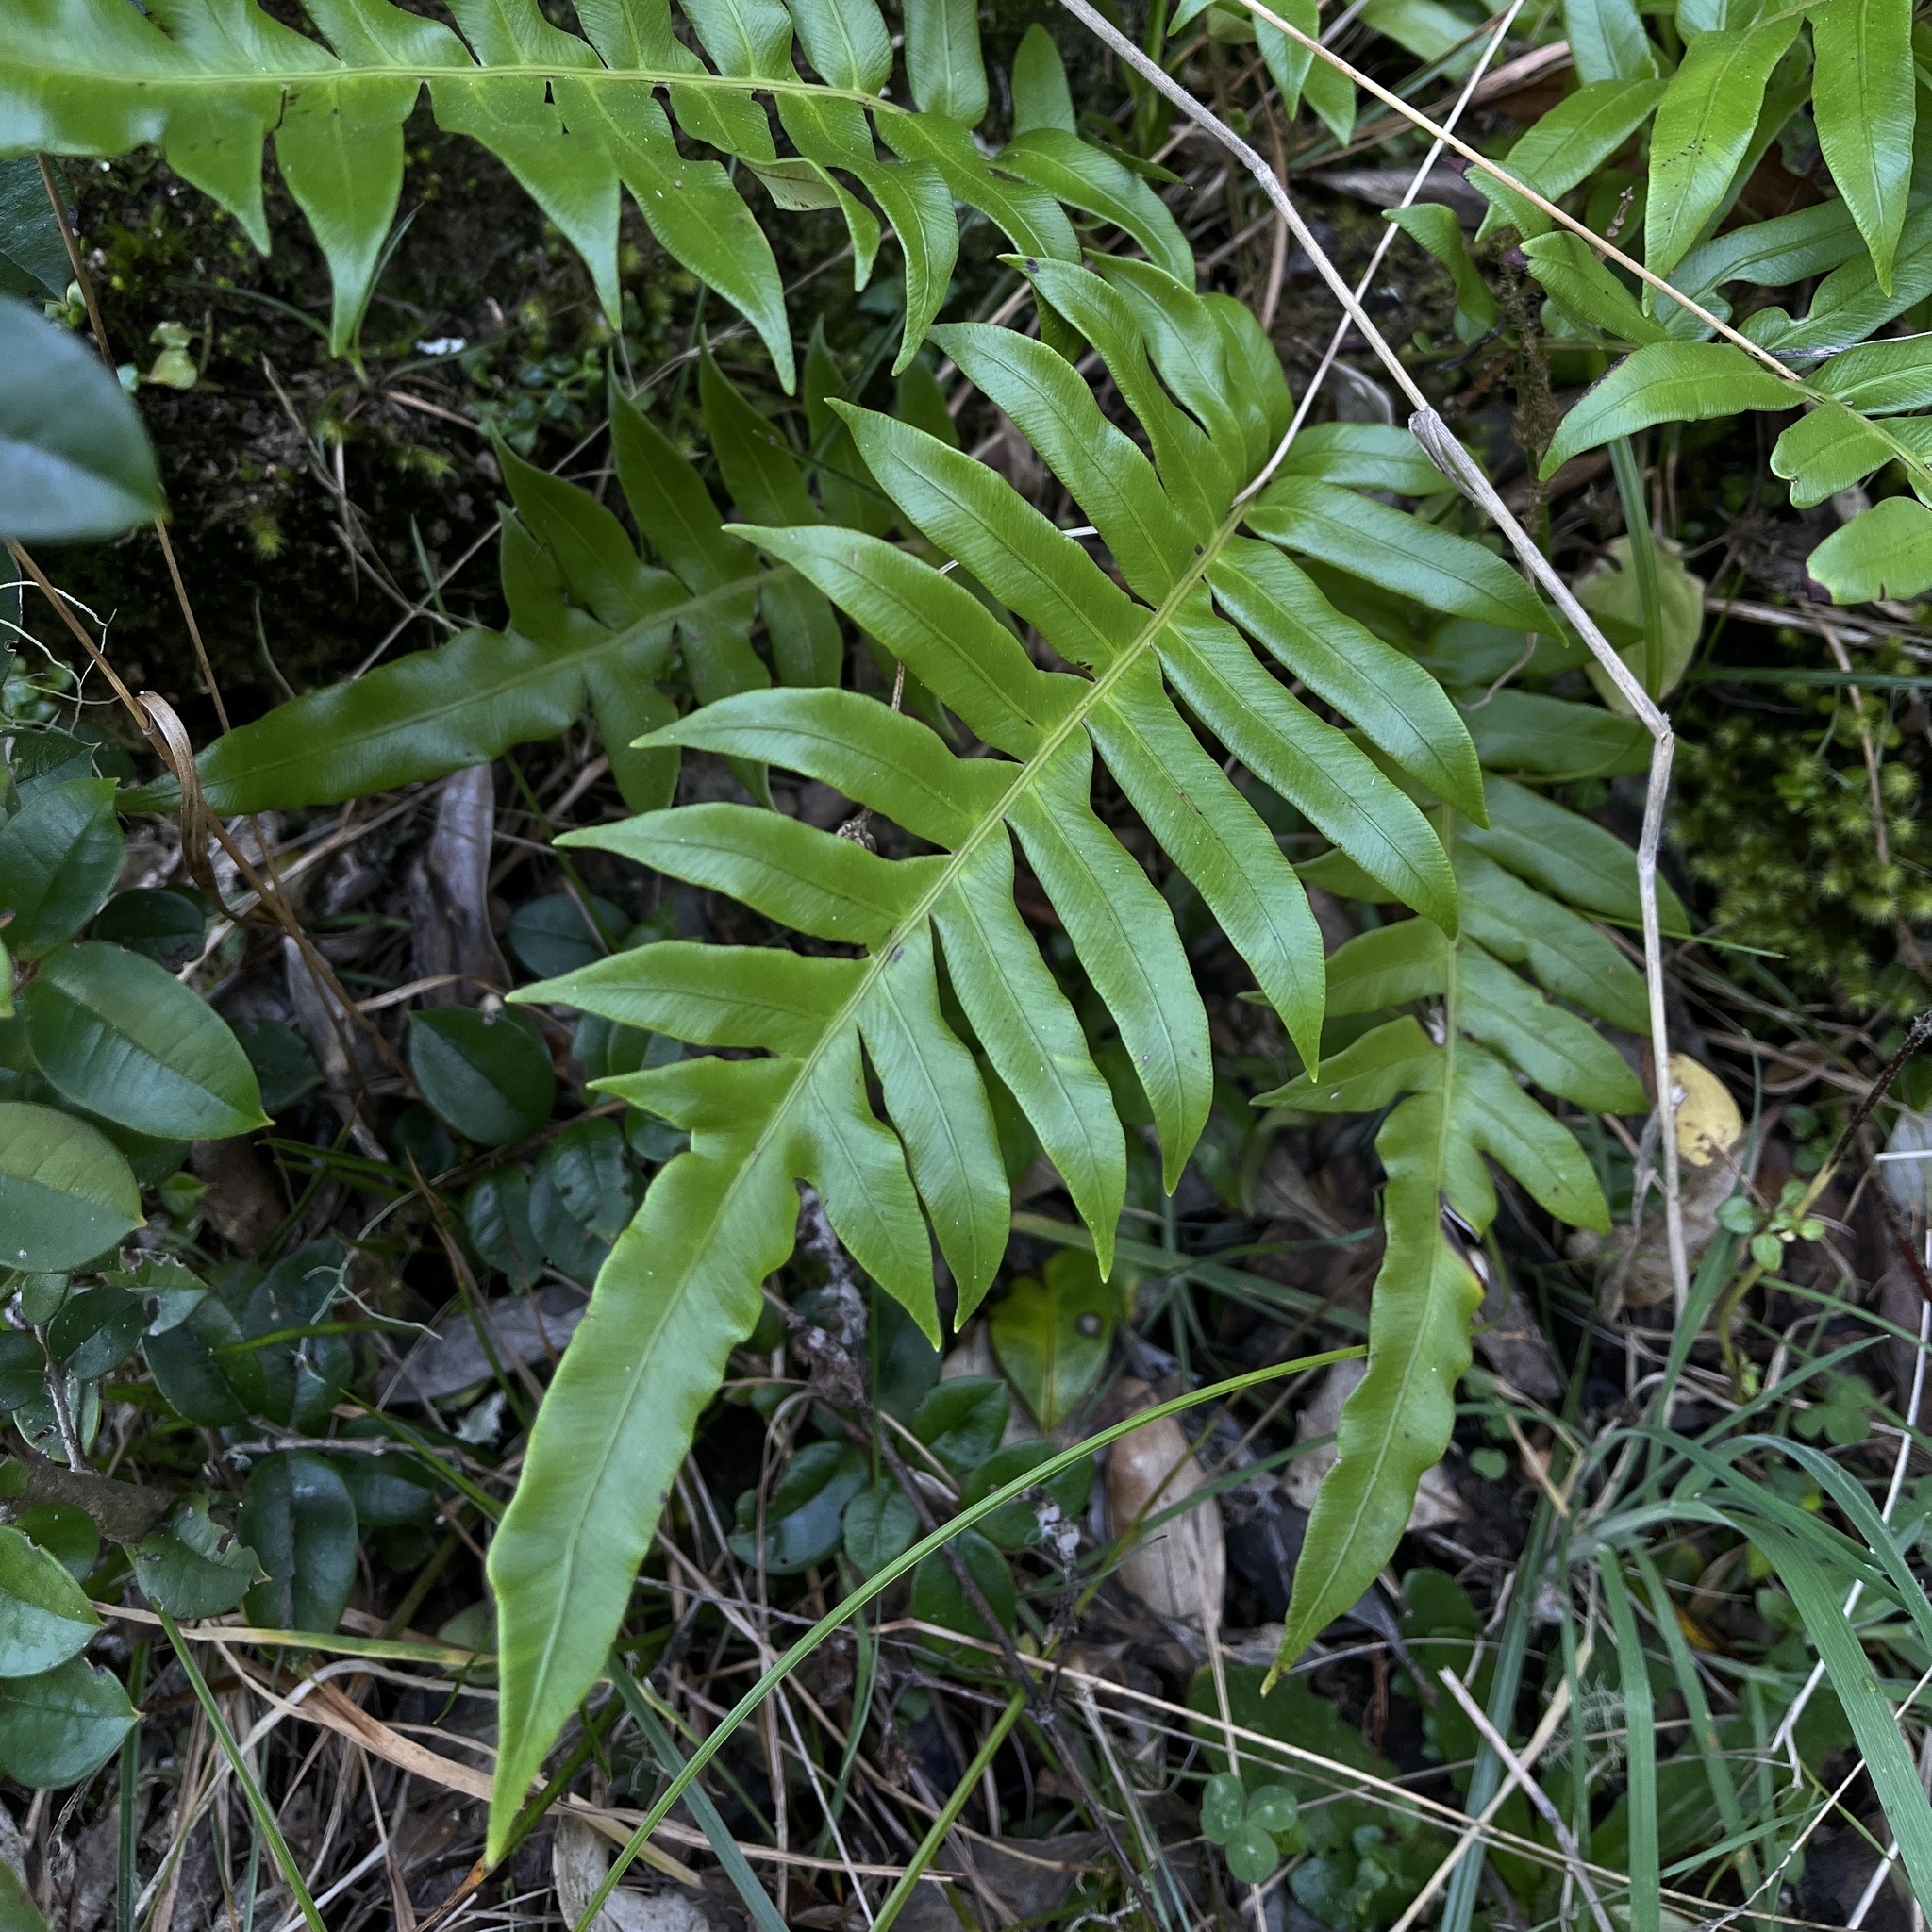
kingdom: Plantae
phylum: Tracheophyta
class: Polypodiopsida
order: Polypodiales
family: Blechnaceae
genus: Lomariocycas
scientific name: Lomariocycas magellanica
